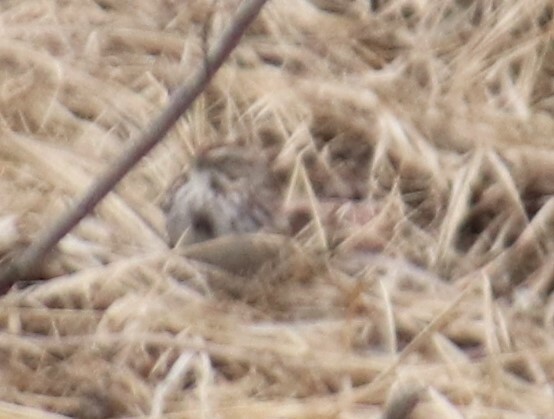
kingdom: Animalia
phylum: Chordata
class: Aves
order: Passeriformes
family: Passerellidae
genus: Melospiza
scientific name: Melospiza melodia
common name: Song sparrow
